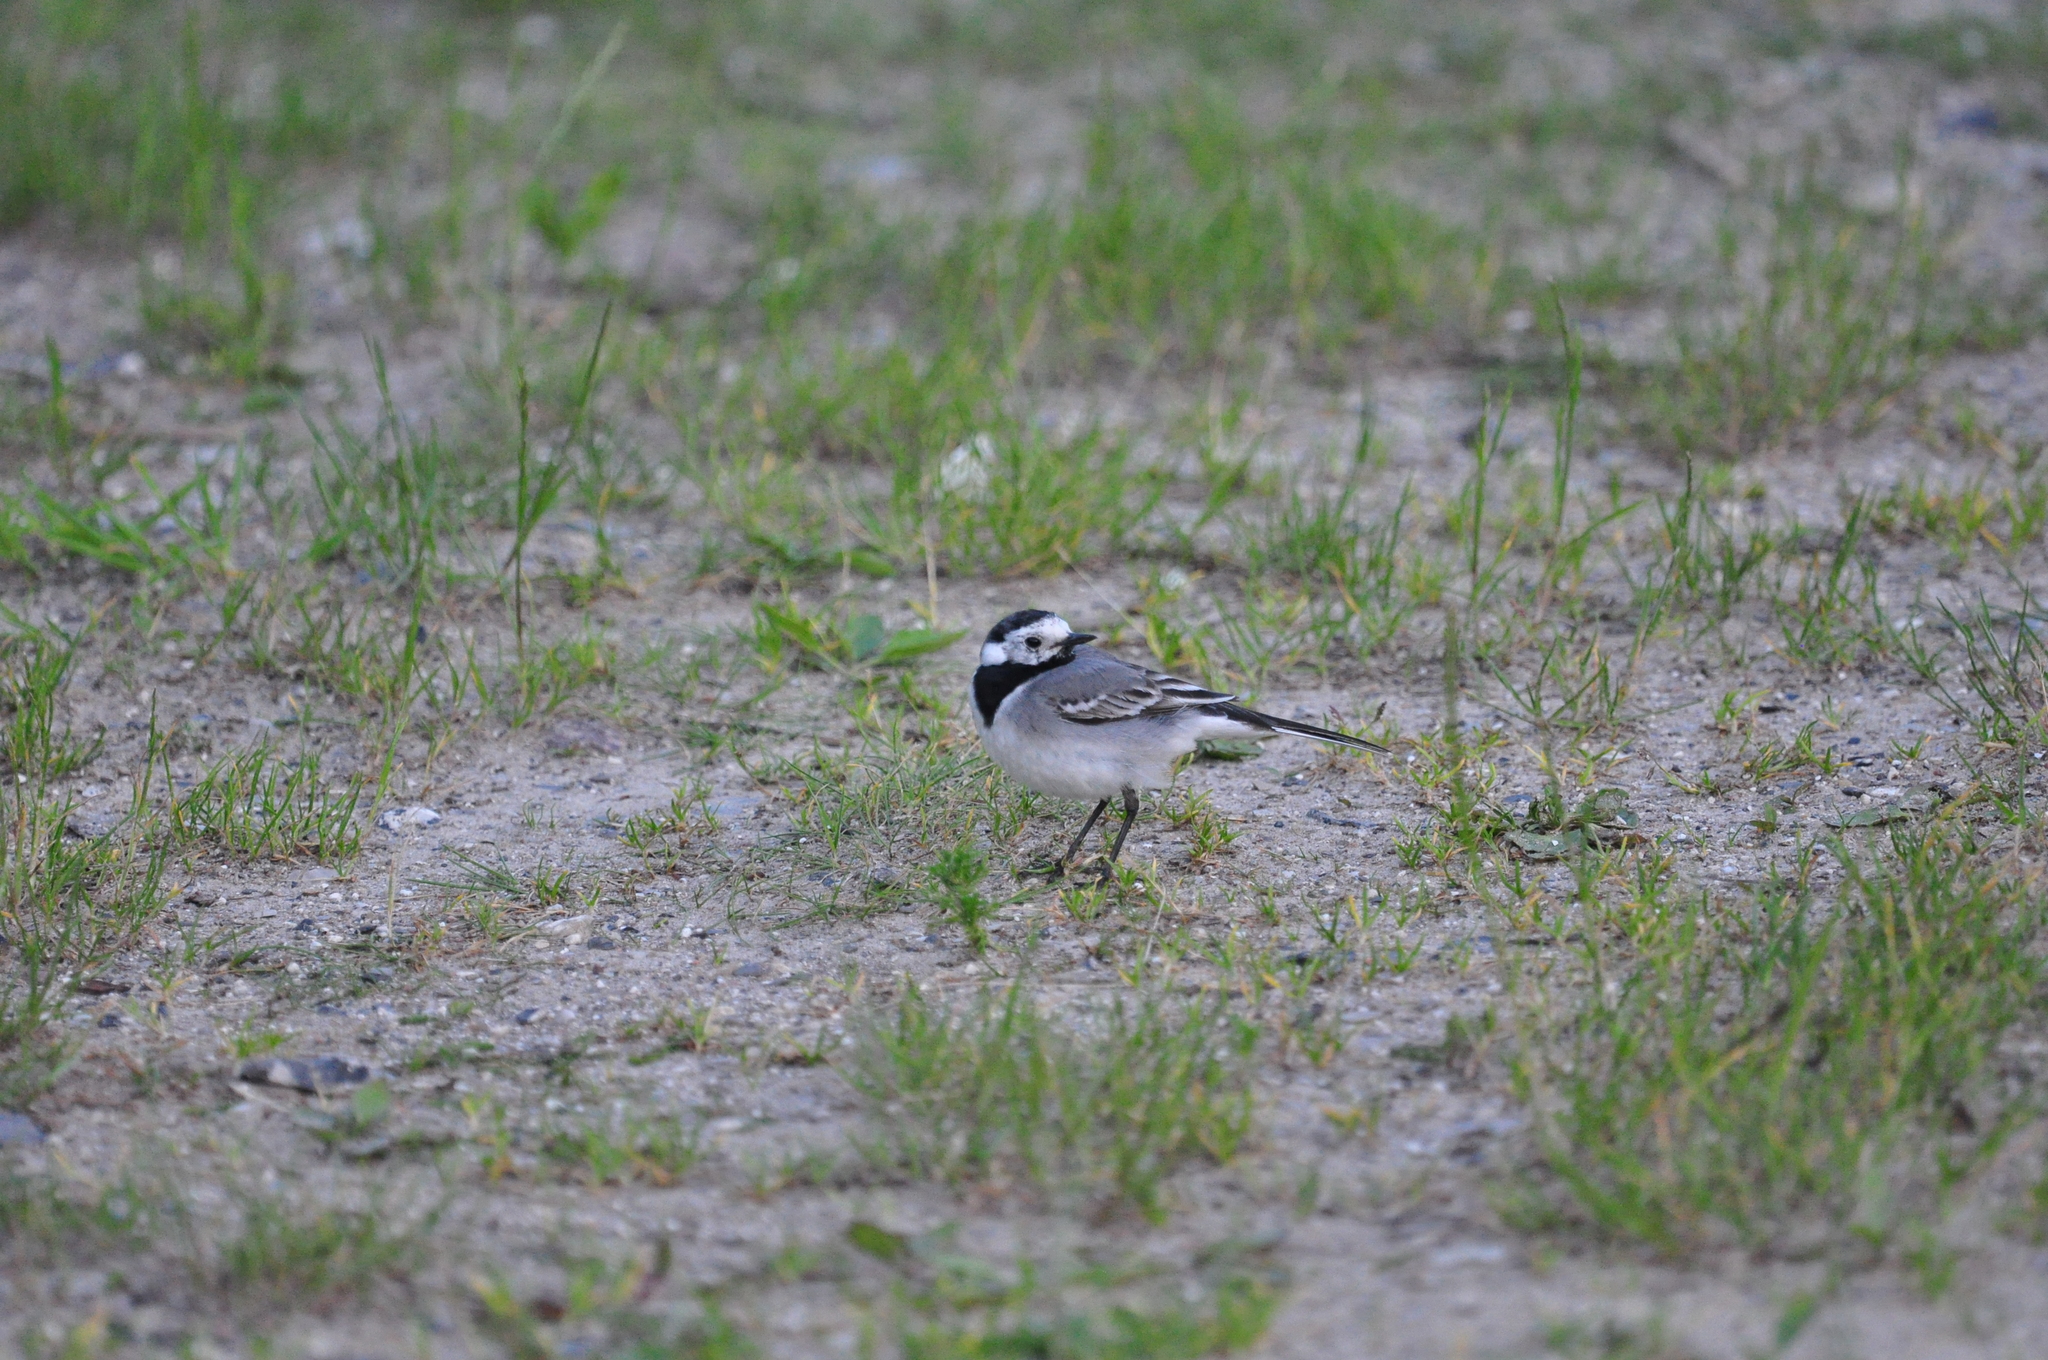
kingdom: Animalia
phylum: Chordata
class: Aves
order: Passeriformes
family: Motacillidae
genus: Motacilla
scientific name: Motacilla alba
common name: White wagtail
